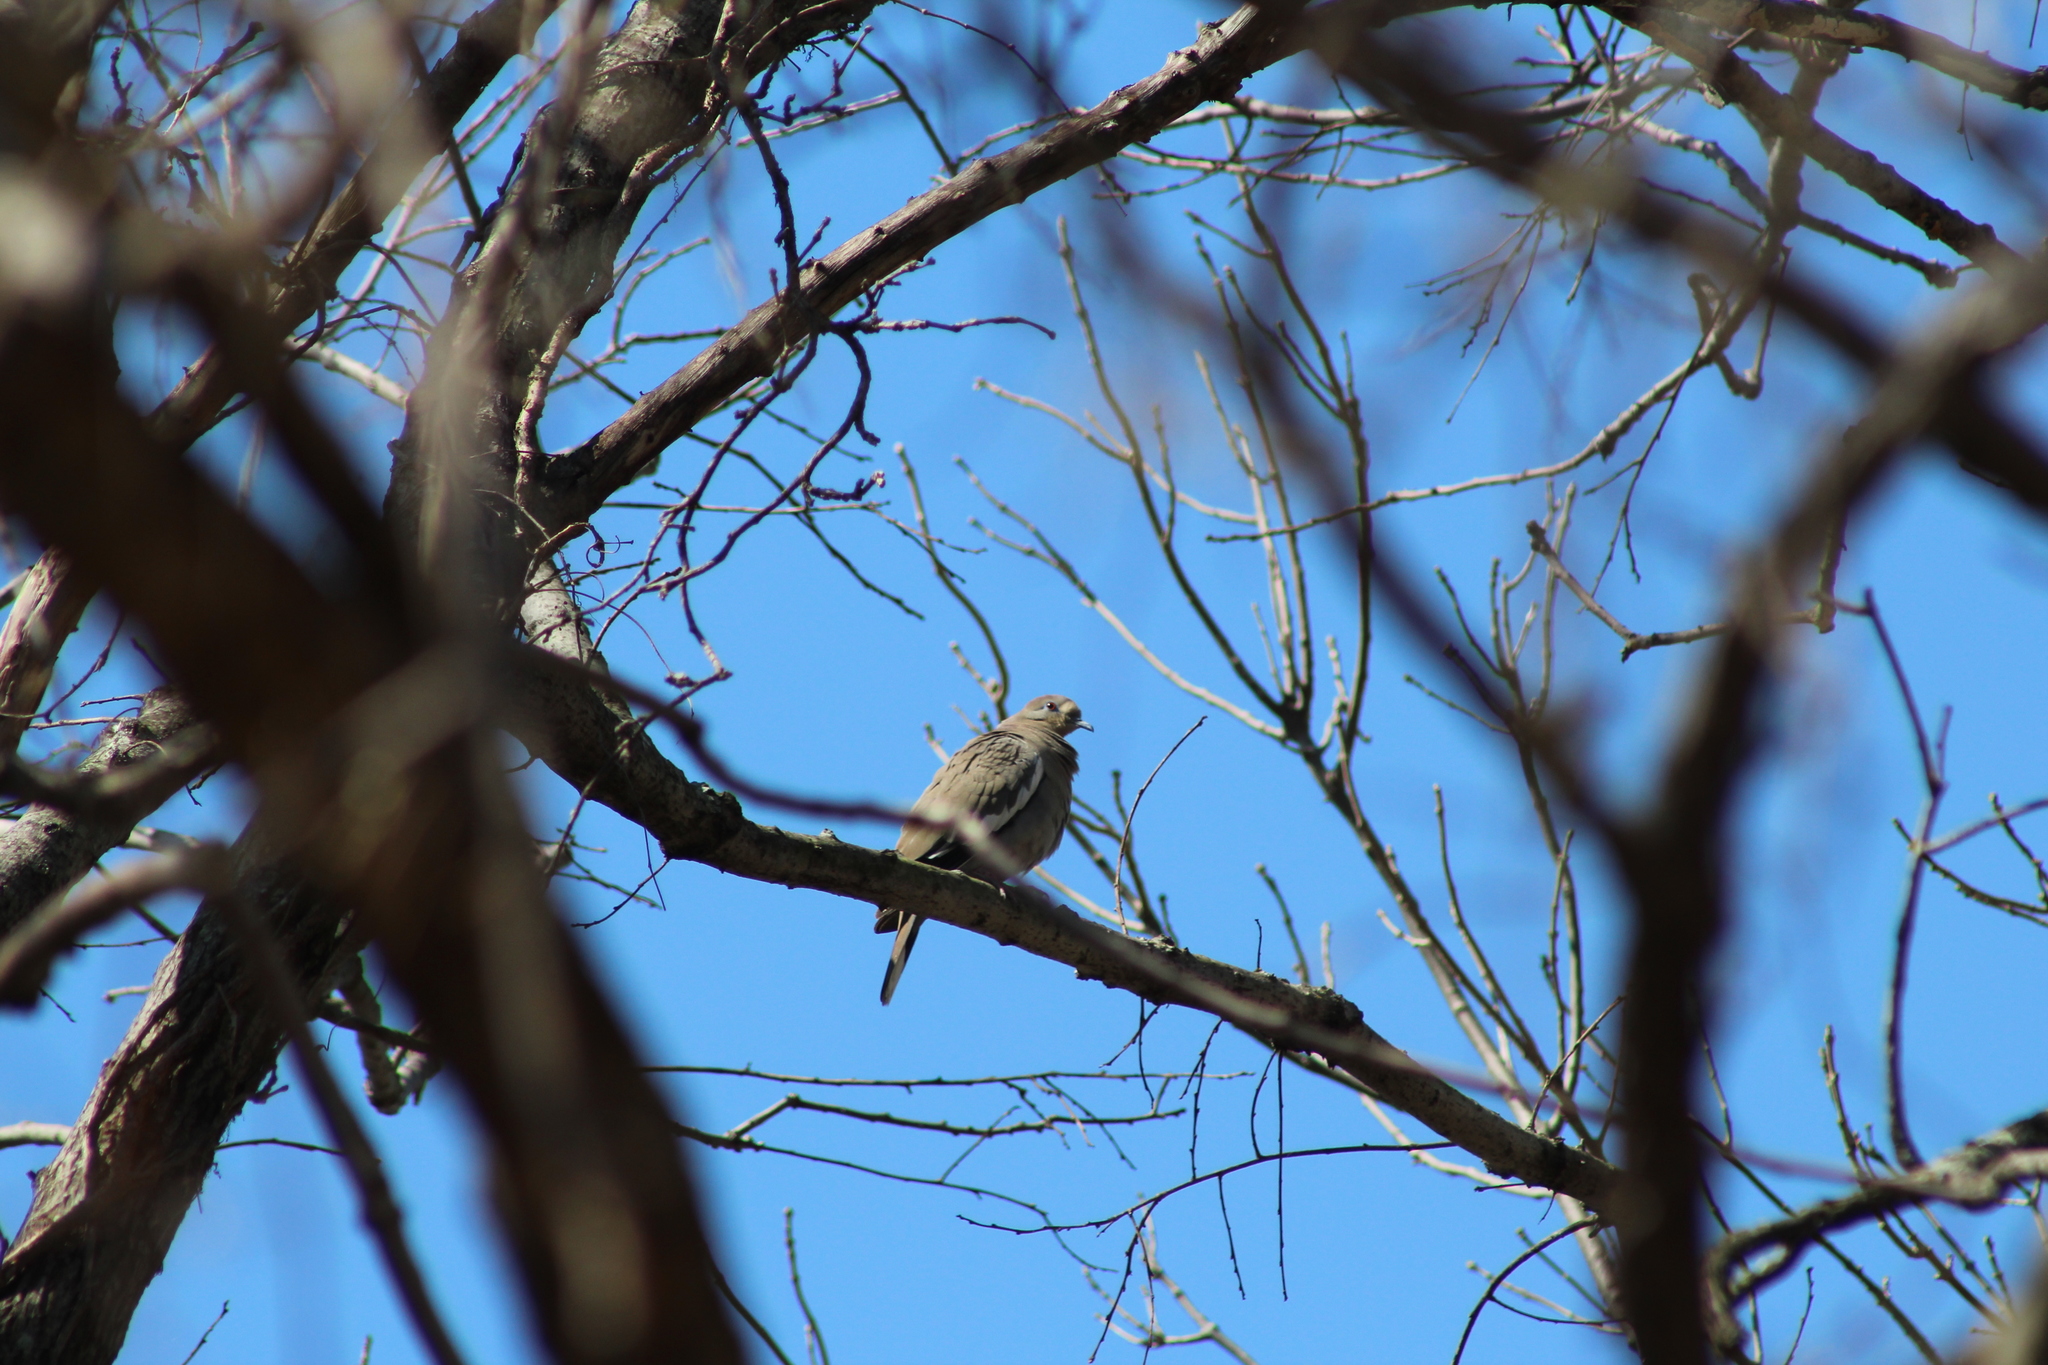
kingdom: Animalia
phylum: Chordata
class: Aves
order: Columbiformes
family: Columbidae
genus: Zenaida
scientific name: Zenaida asiatica
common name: White-winged dove
